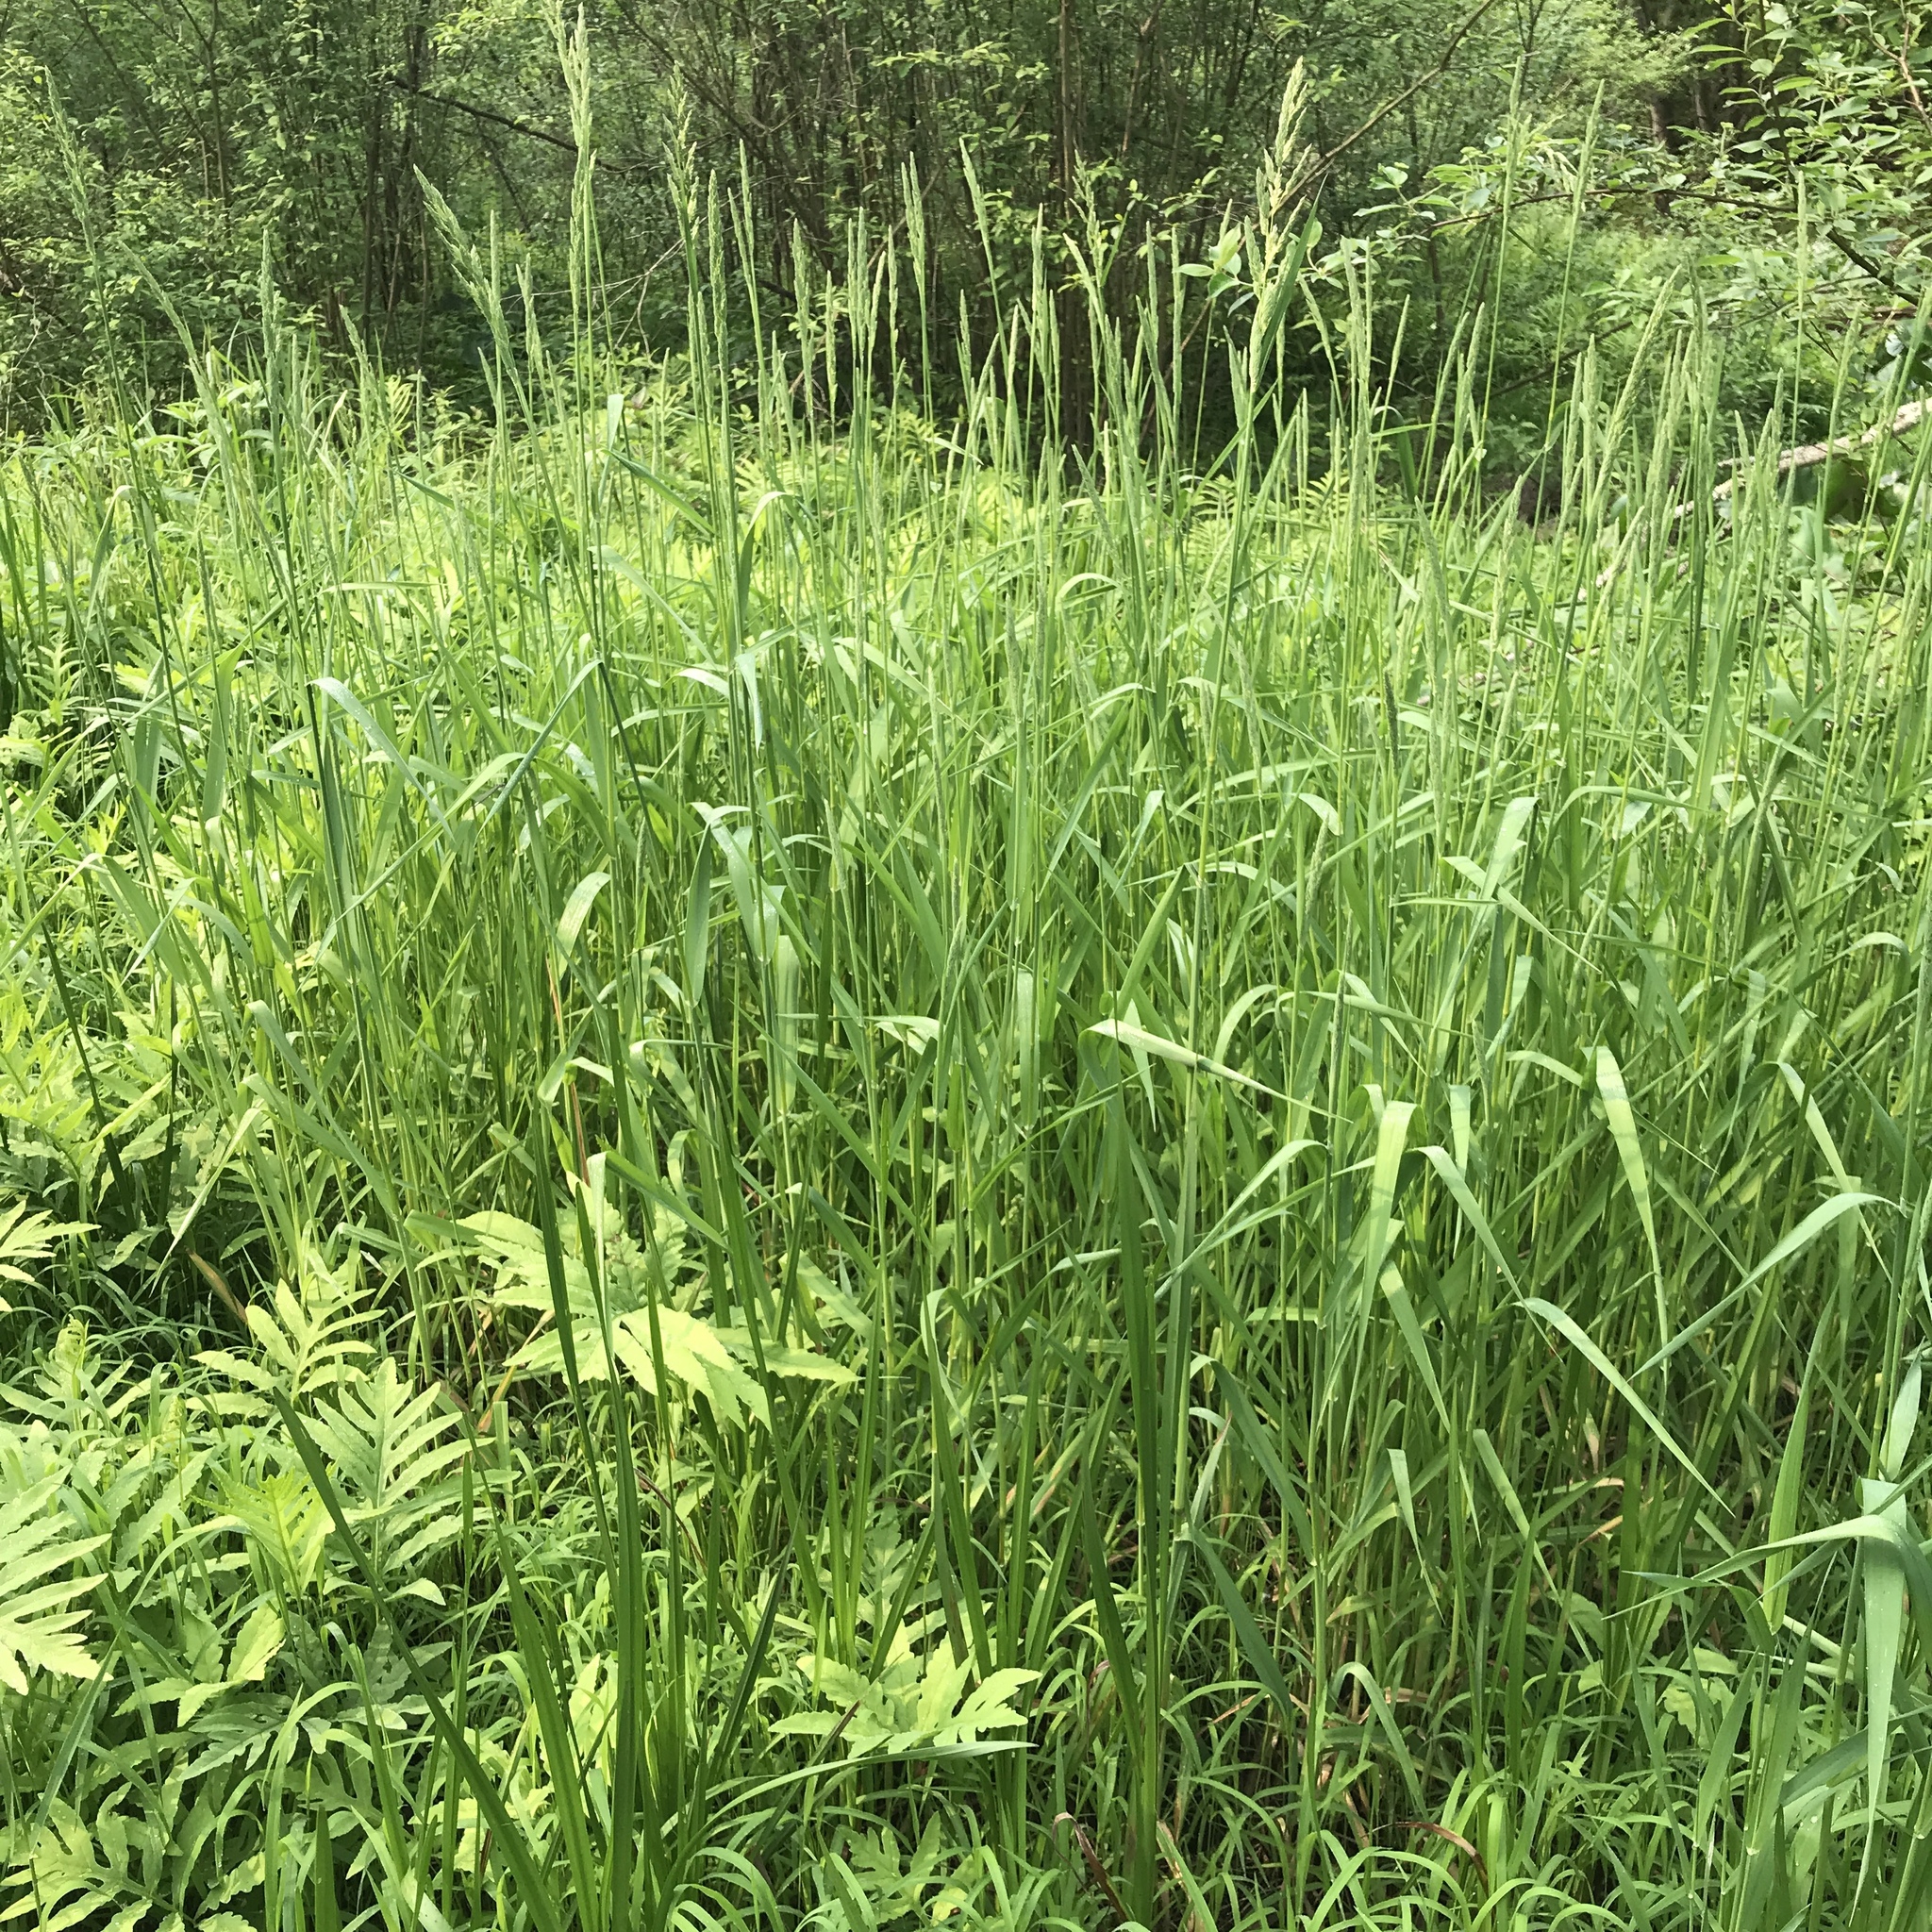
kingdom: Plantae
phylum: Tracheophyta
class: Liliopsida
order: Poales
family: Poaceae
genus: Phalaris
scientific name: Phalaris arundinacea
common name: Reed canary-grass
